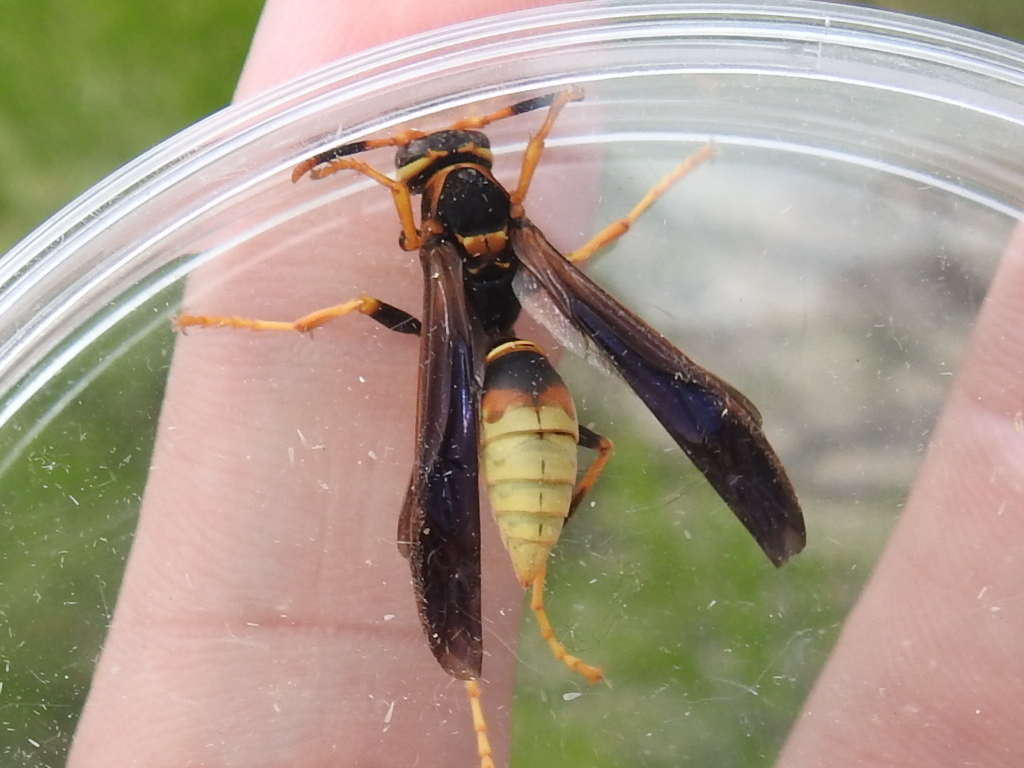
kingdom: Animalia
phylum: Arthropoda
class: Insecta
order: Hymenoptera
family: Eumenidae
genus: Polistes
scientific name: Polistes comanchus
